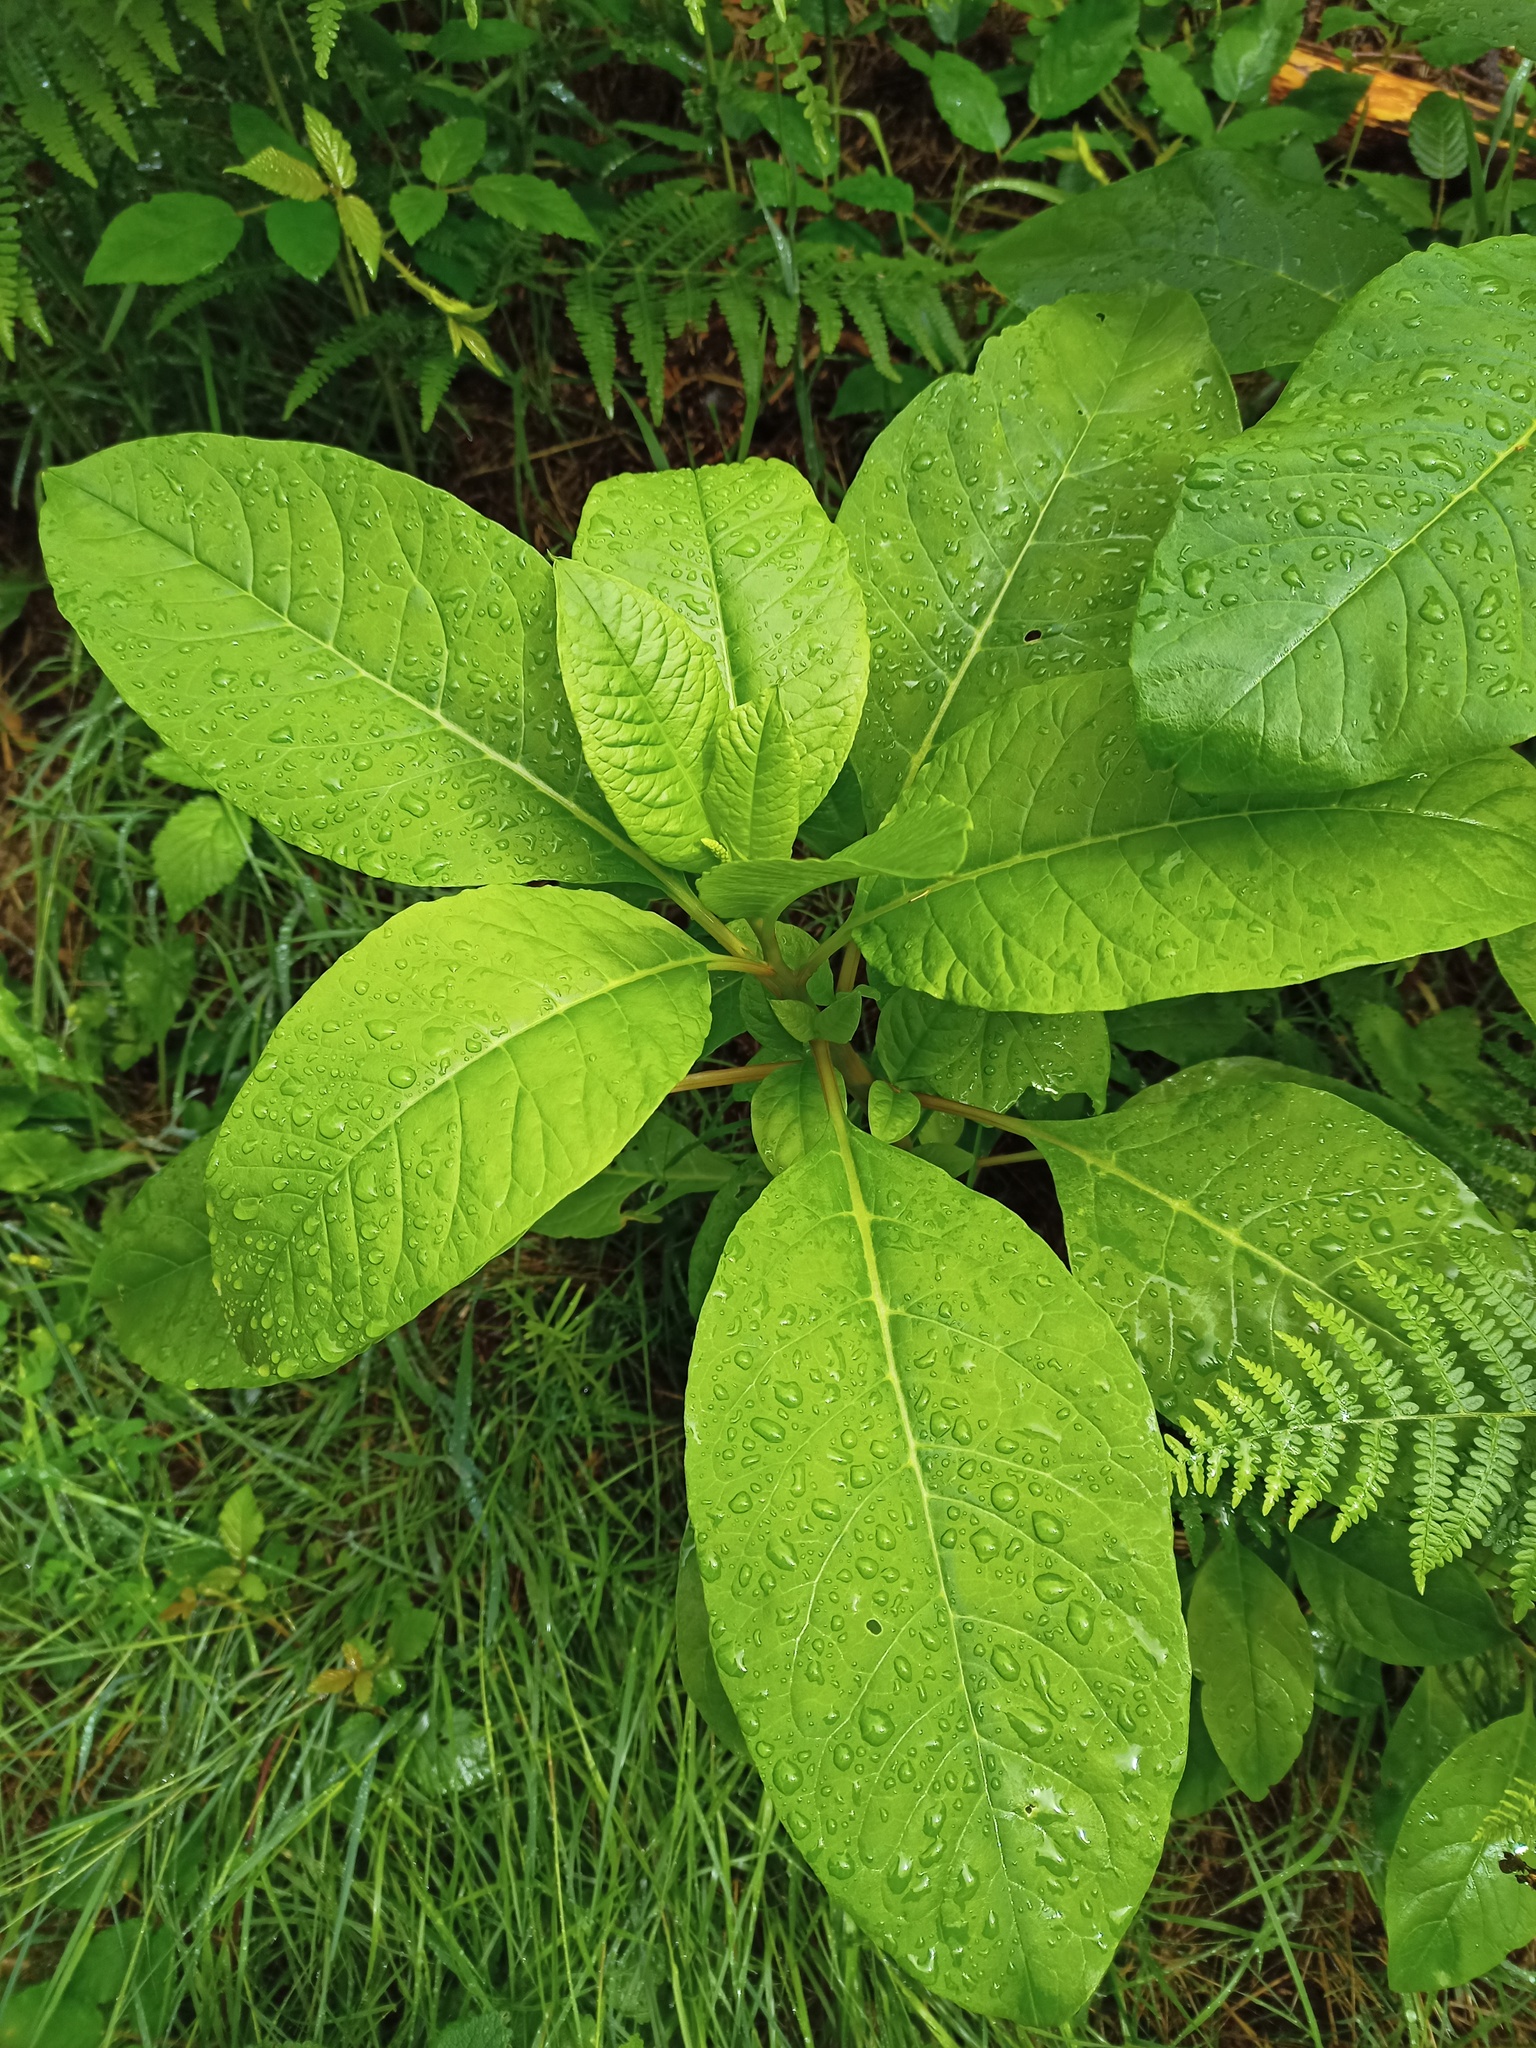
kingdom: Plantae
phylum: Tracheophyta
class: Magnoliopsida
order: Caryophyllales
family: Phytolaccaceae
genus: Phytolacca
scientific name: Phytolacca americana
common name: American pokeweed
